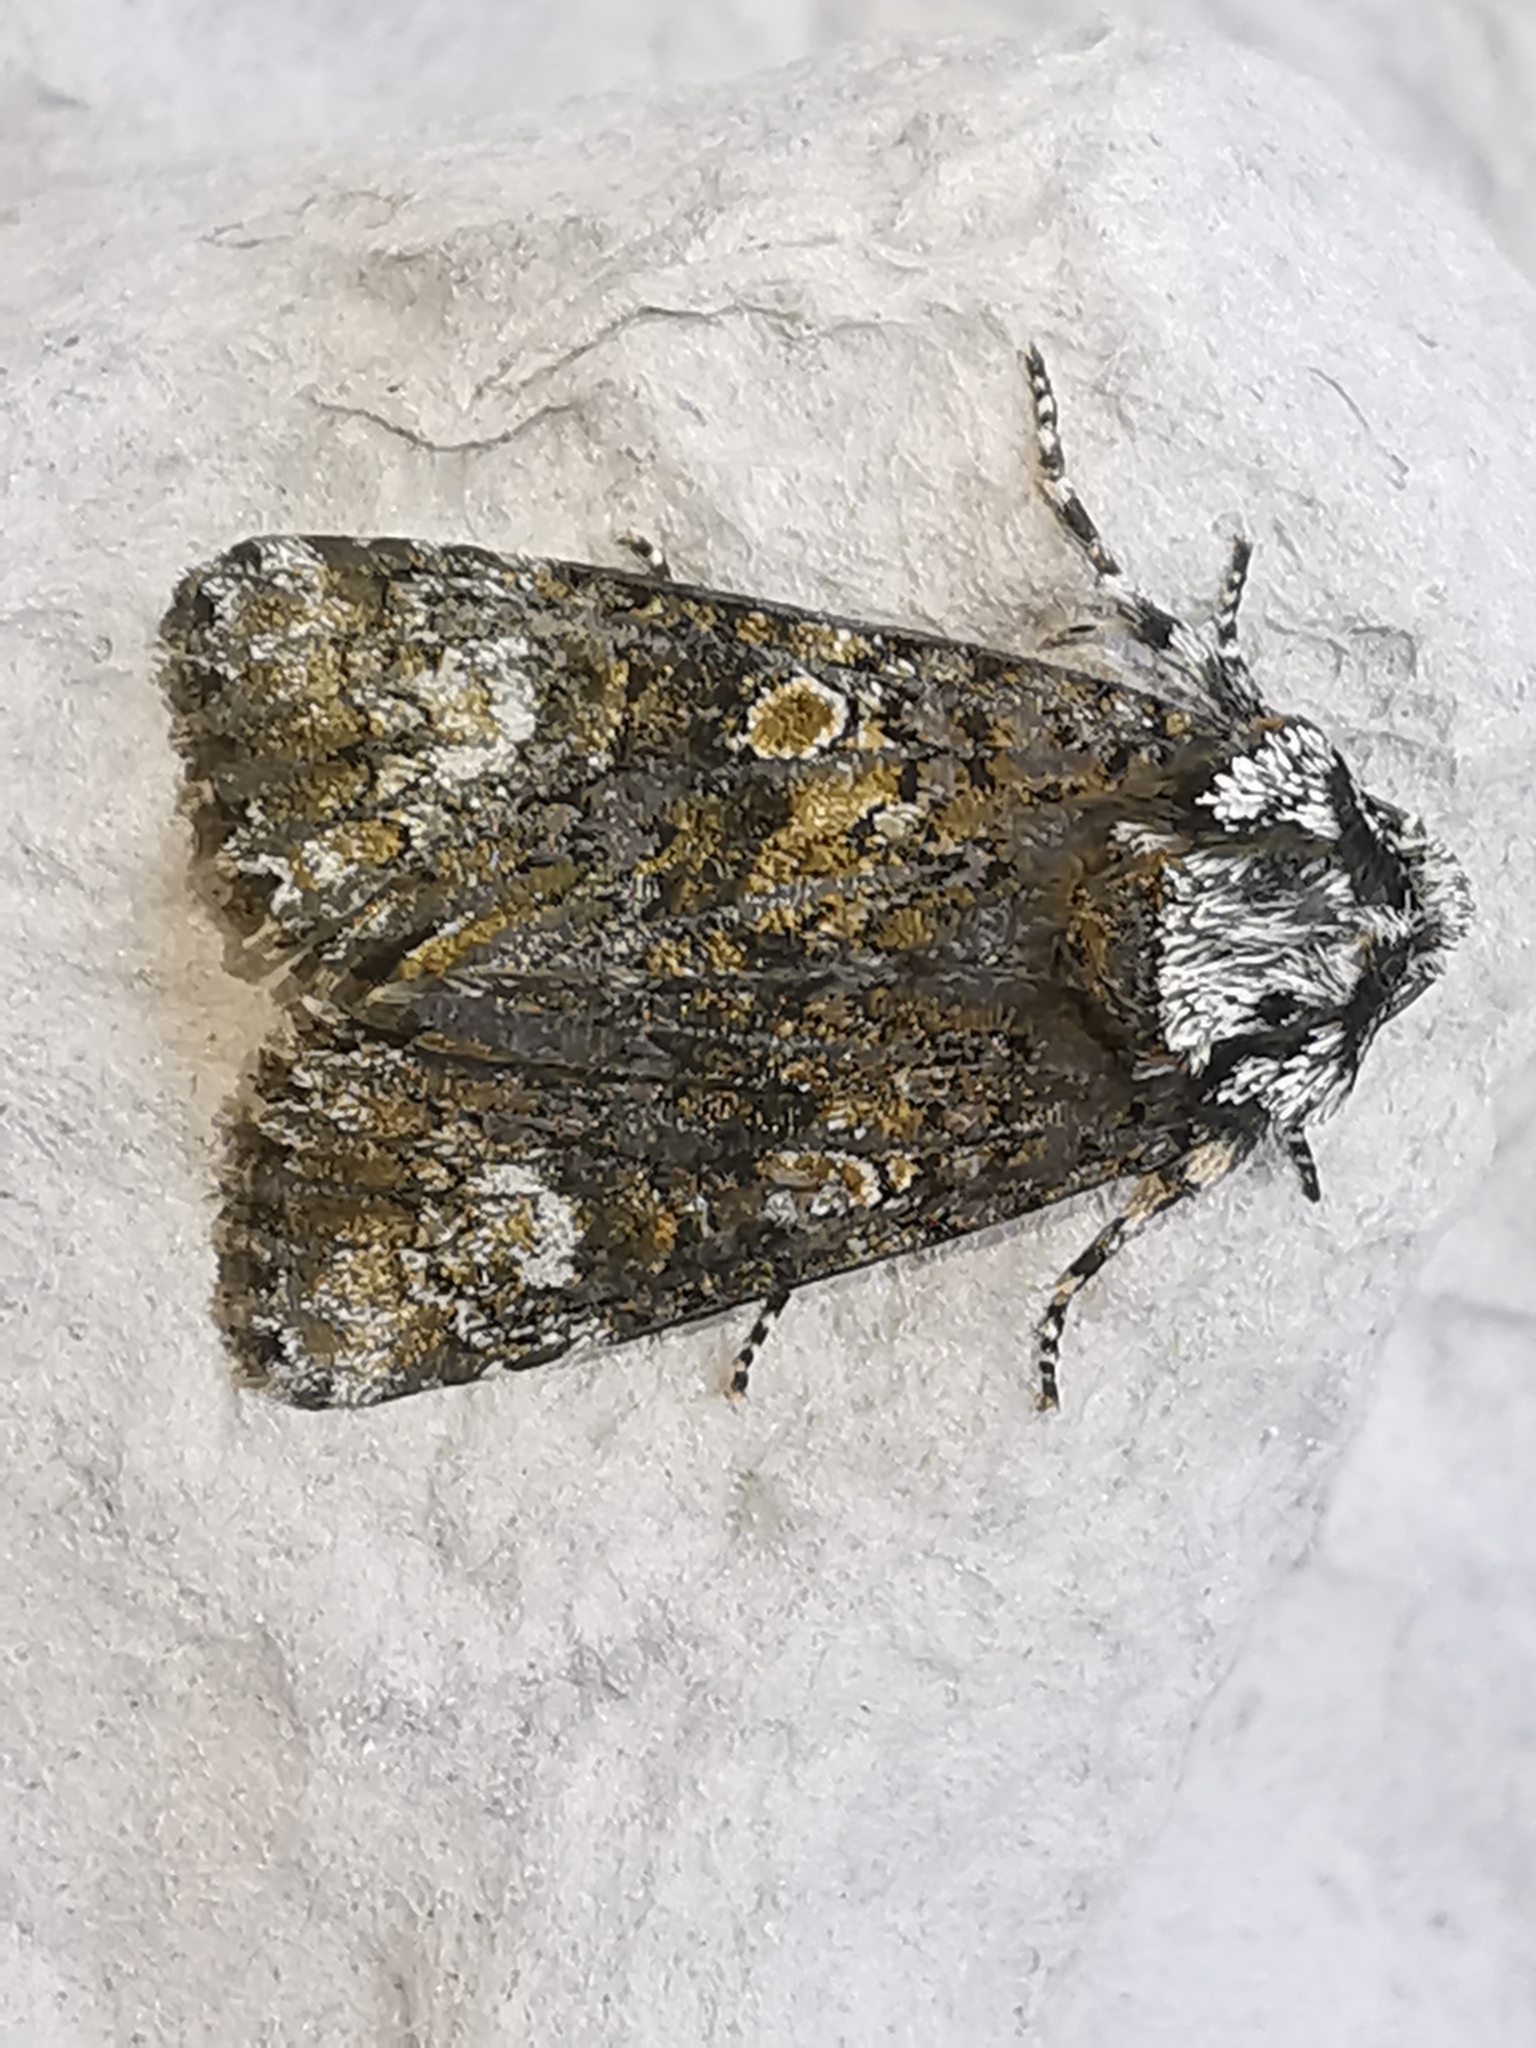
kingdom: Animalia
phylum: Arthropoda
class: Insecta
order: Lepidoptera
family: Noctuidae
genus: Craniophora
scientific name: Craniophora ligustri
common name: Coronet
